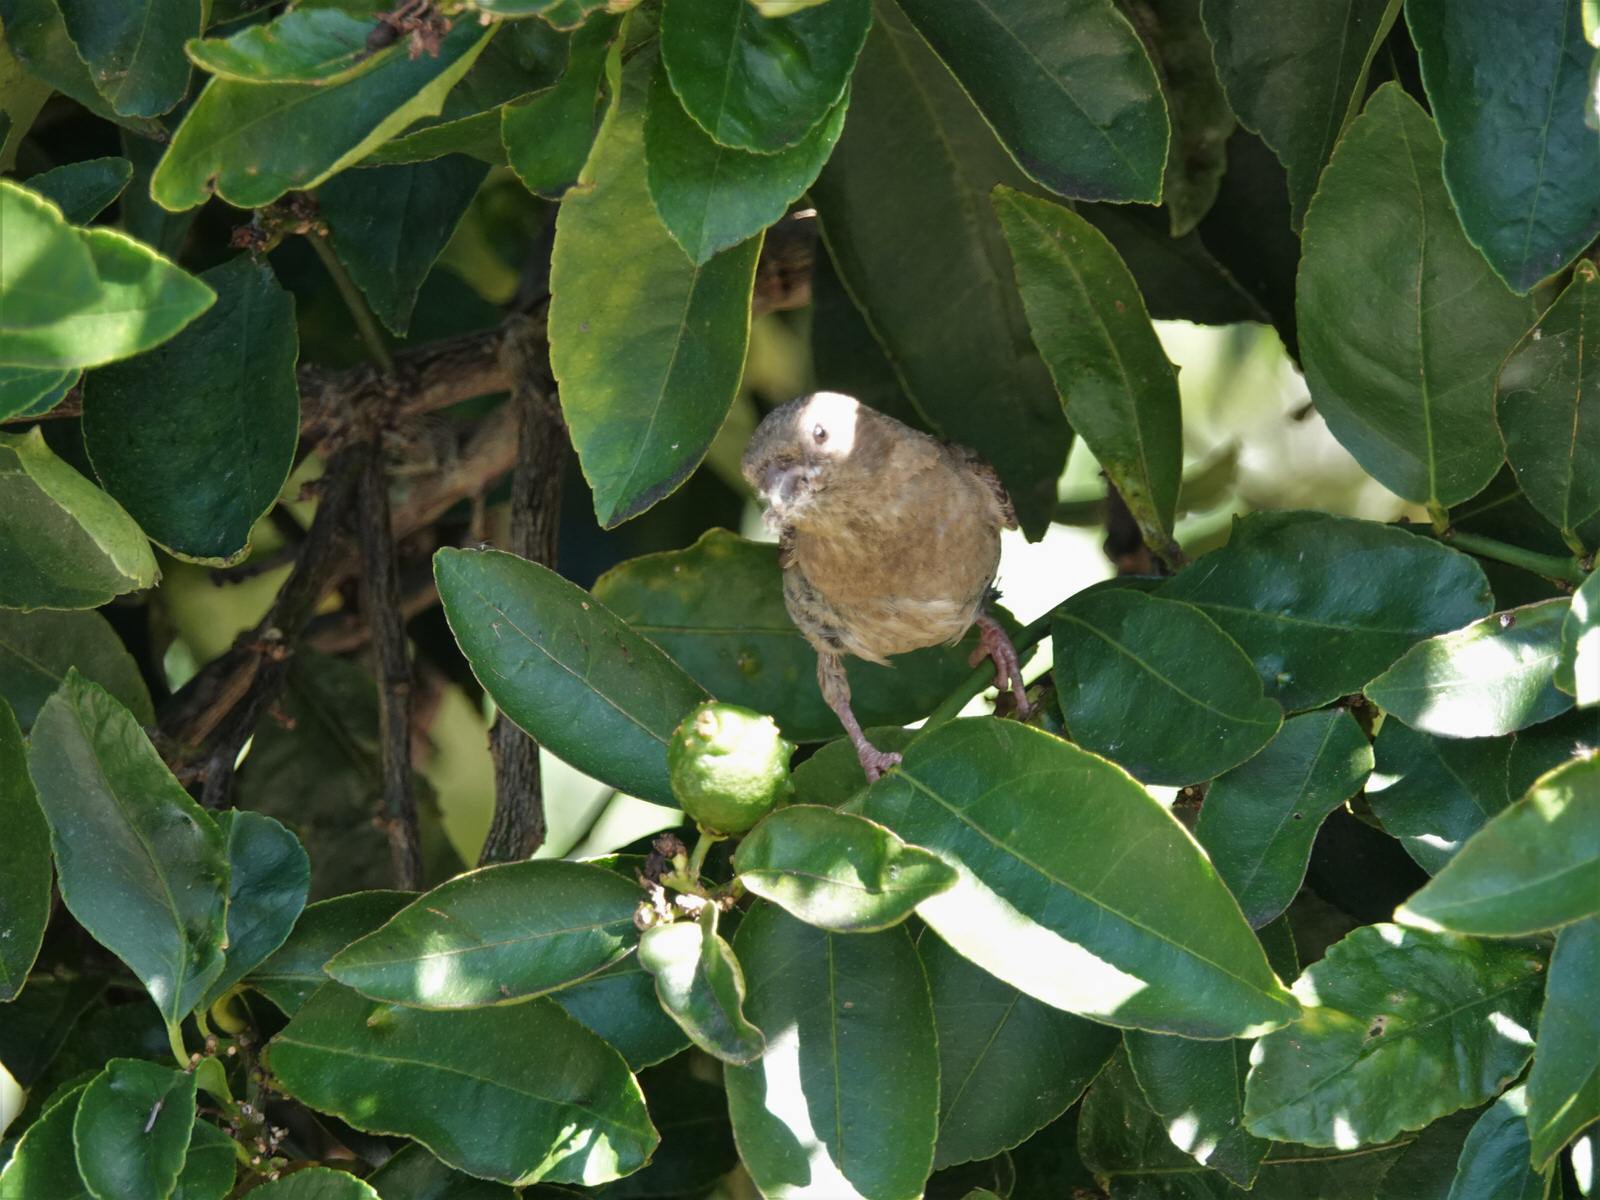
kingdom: Animalia
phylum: Chordata
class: Aves
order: Passeriformes
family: Passeridae
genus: Passer
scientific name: Passer domesticus
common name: House sparrow
